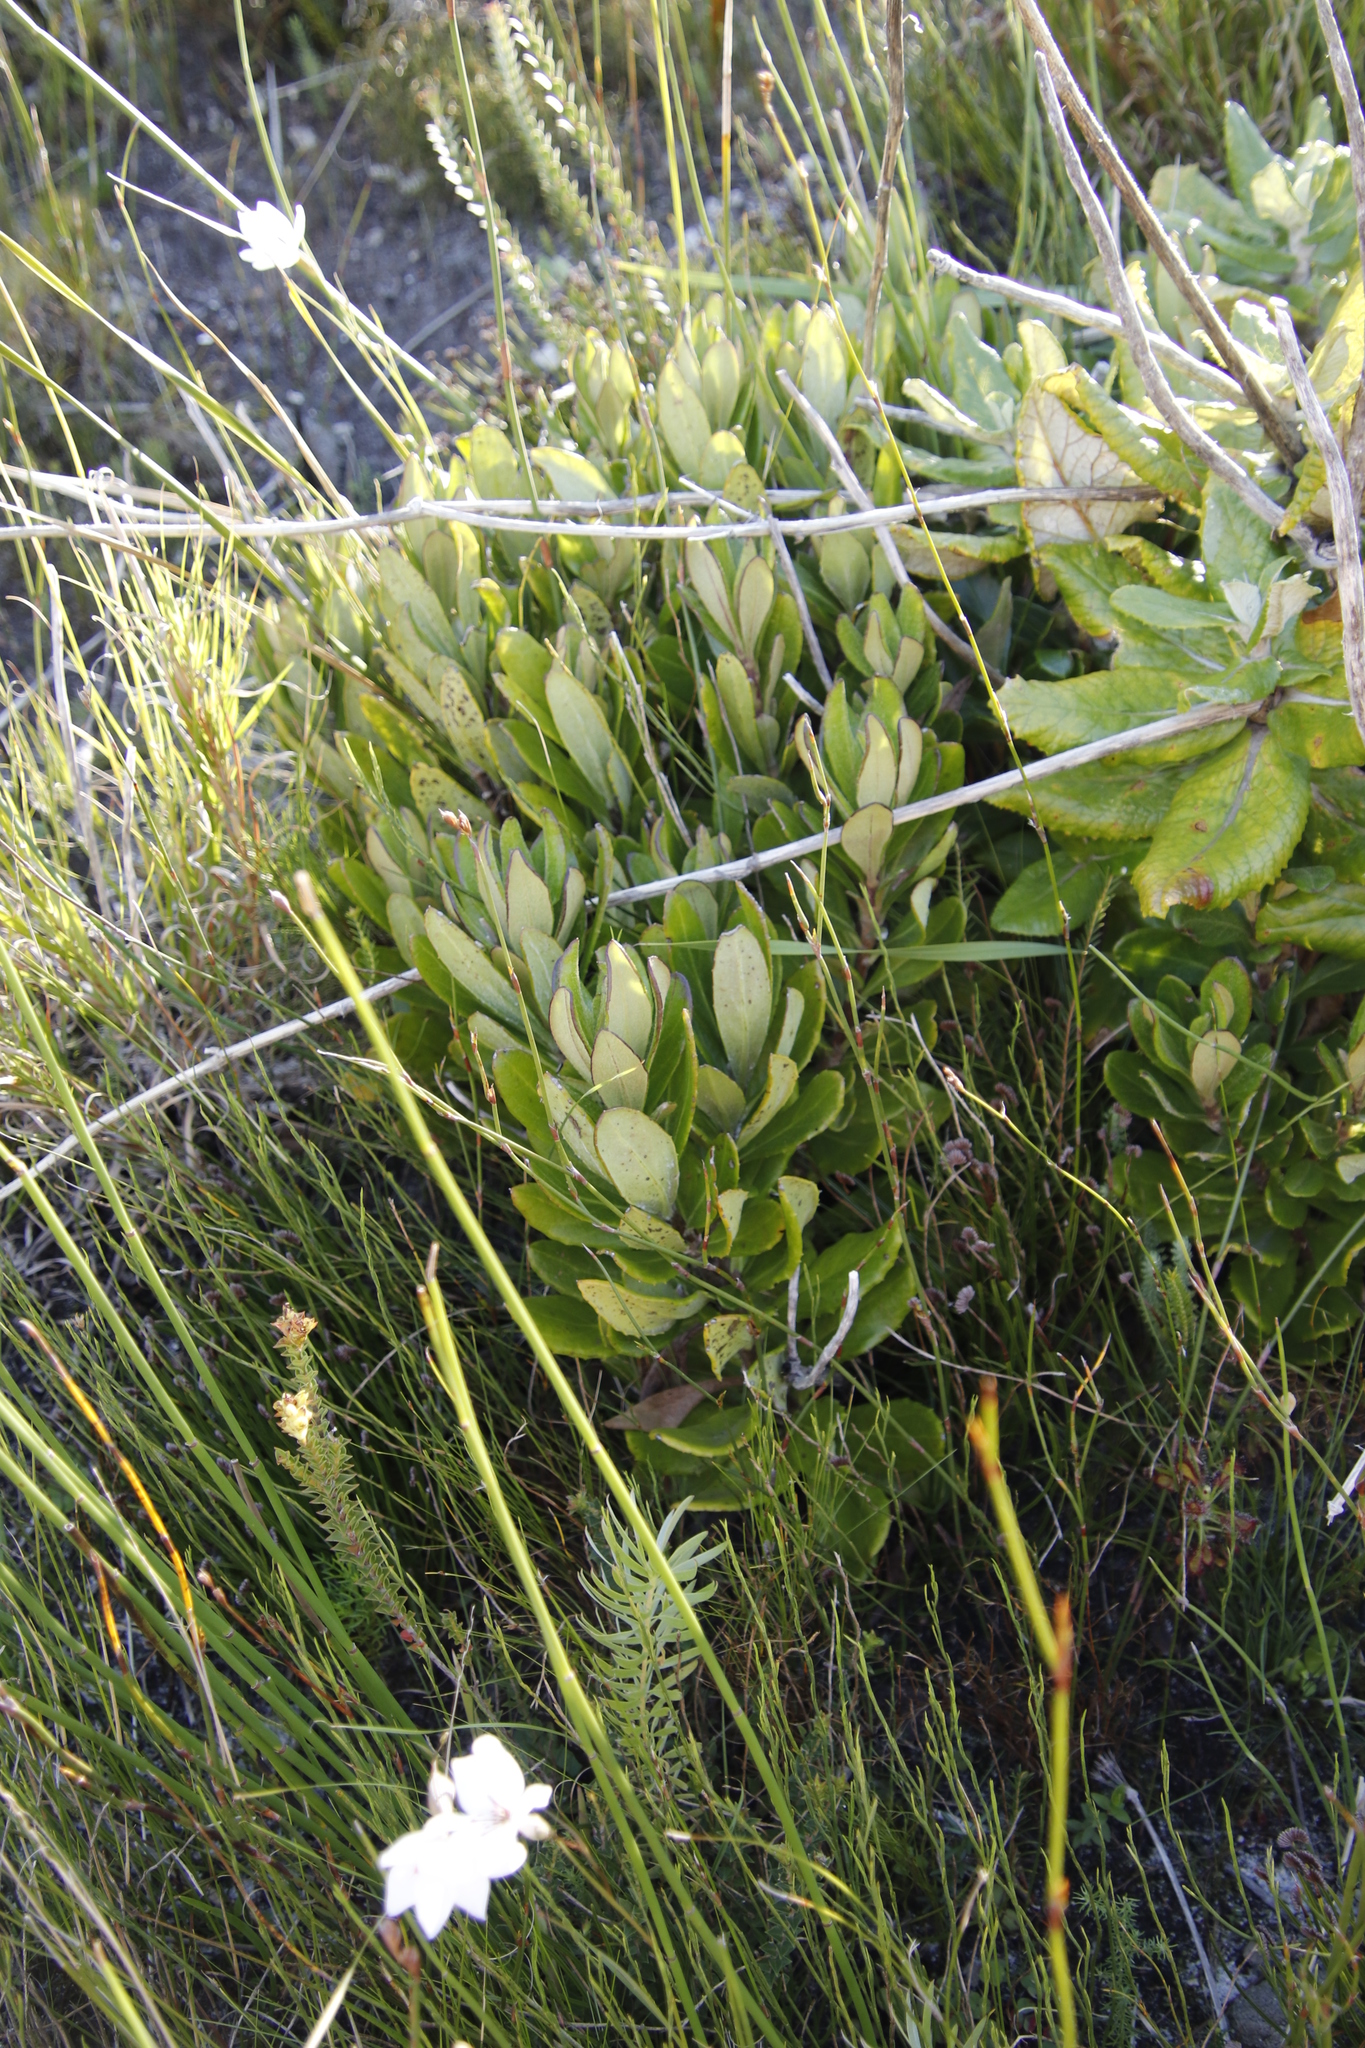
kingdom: Plantae
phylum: Tracheophyta
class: Magnoliopsida
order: Asterales
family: Asteraceae
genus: Capelio
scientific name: Capelio caledonica
